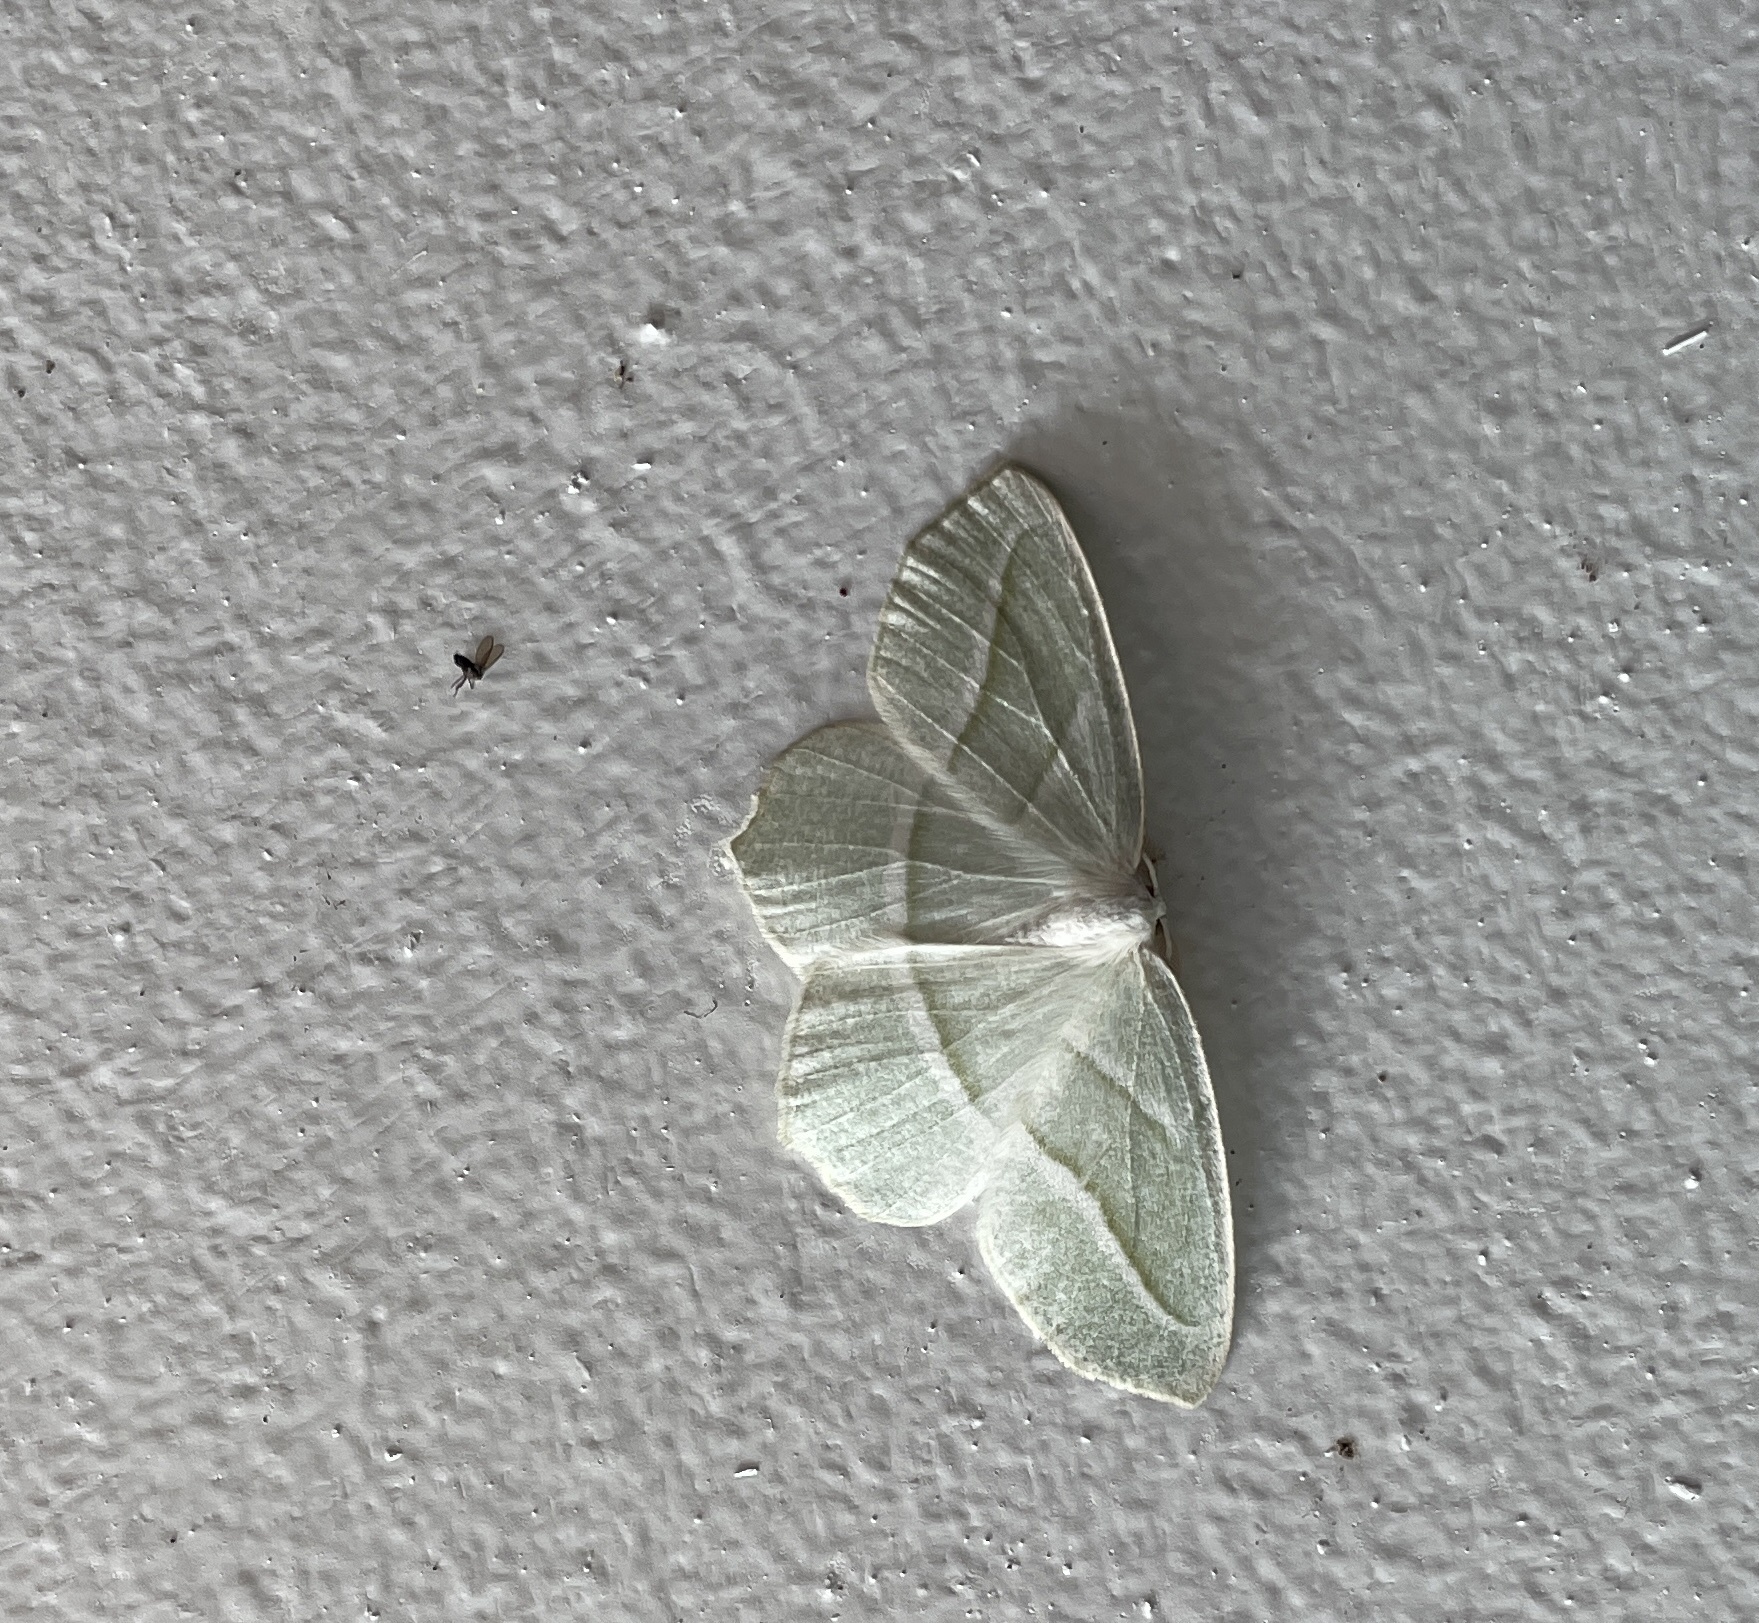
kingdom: Animalia
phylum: Arthropoda
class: Insecta
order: Lepidoptera
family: Geometridae
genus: Campaea
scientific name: Campaea perlata
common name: Fringed looper
